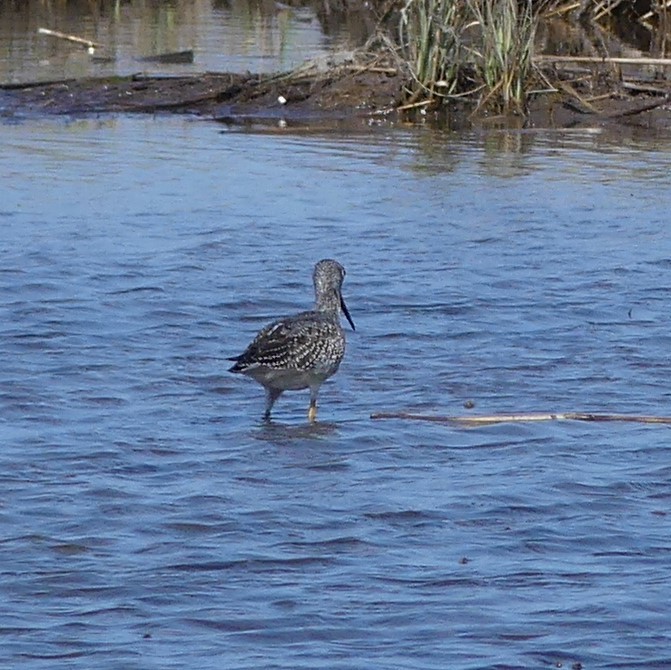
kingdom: Animalia
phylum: Chordata
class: Aves
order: Charadriiformes
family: Scolopacidae
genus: Tringa
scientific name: Tringa melanoleuca
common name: Greater yellowlegs
